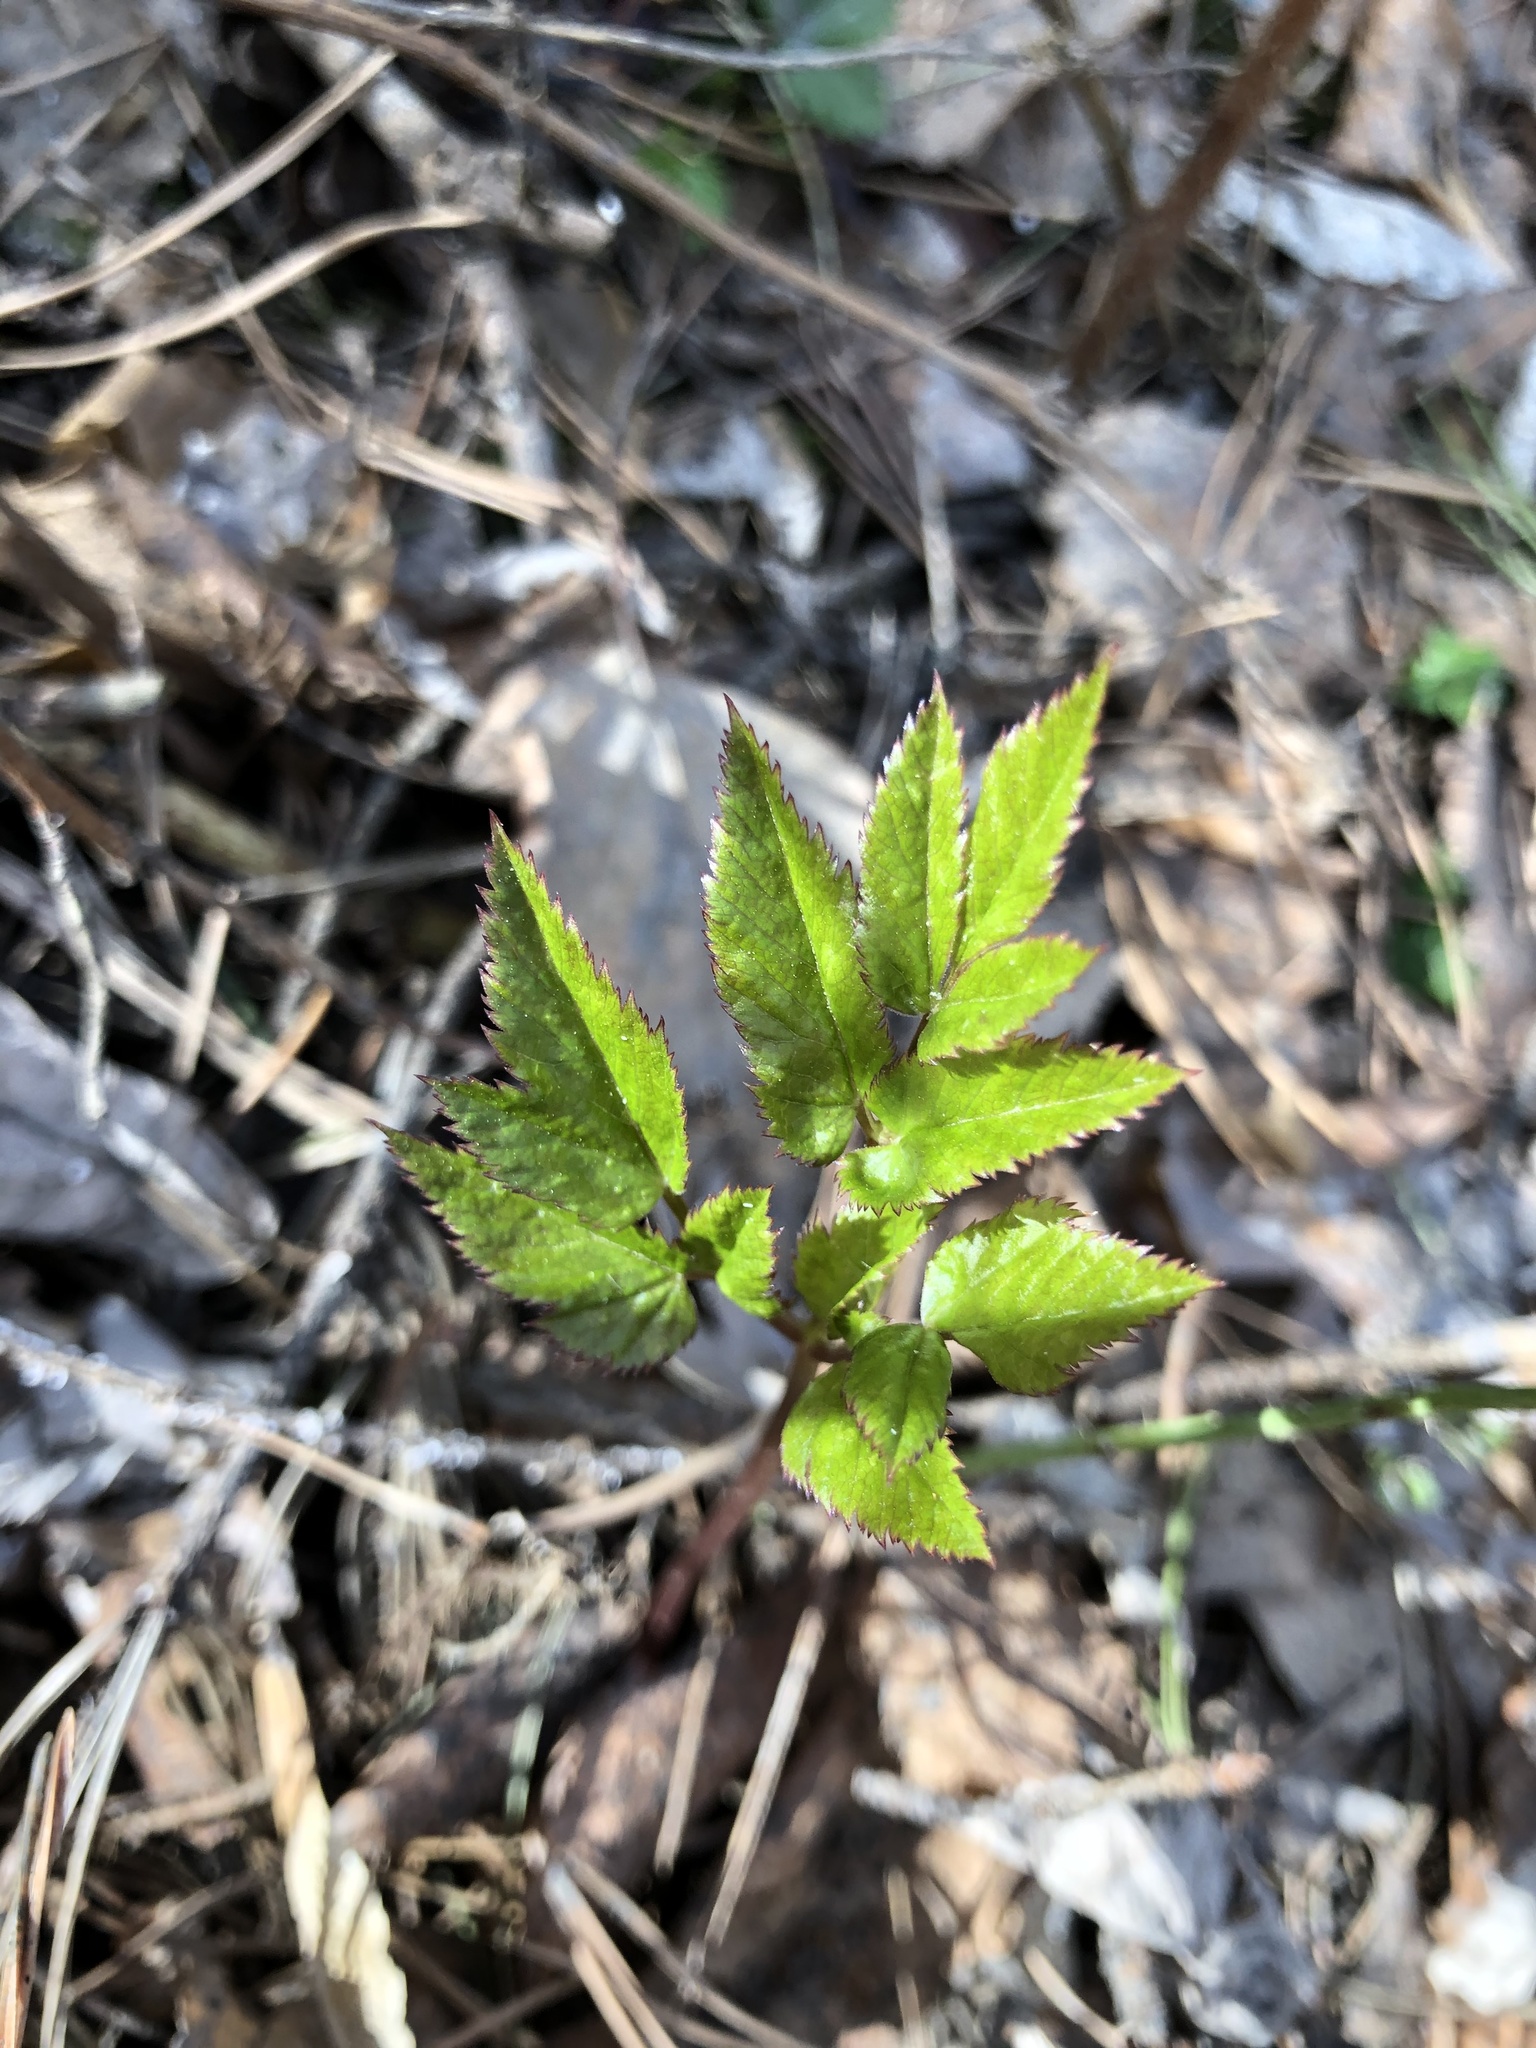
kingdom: Plantae
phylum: Tracheophyta
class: Magnoliopsida
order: Apiales
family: Apiaceae
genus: Aegopodium
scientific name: Aegopodium podagraria
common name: Ground-elder
